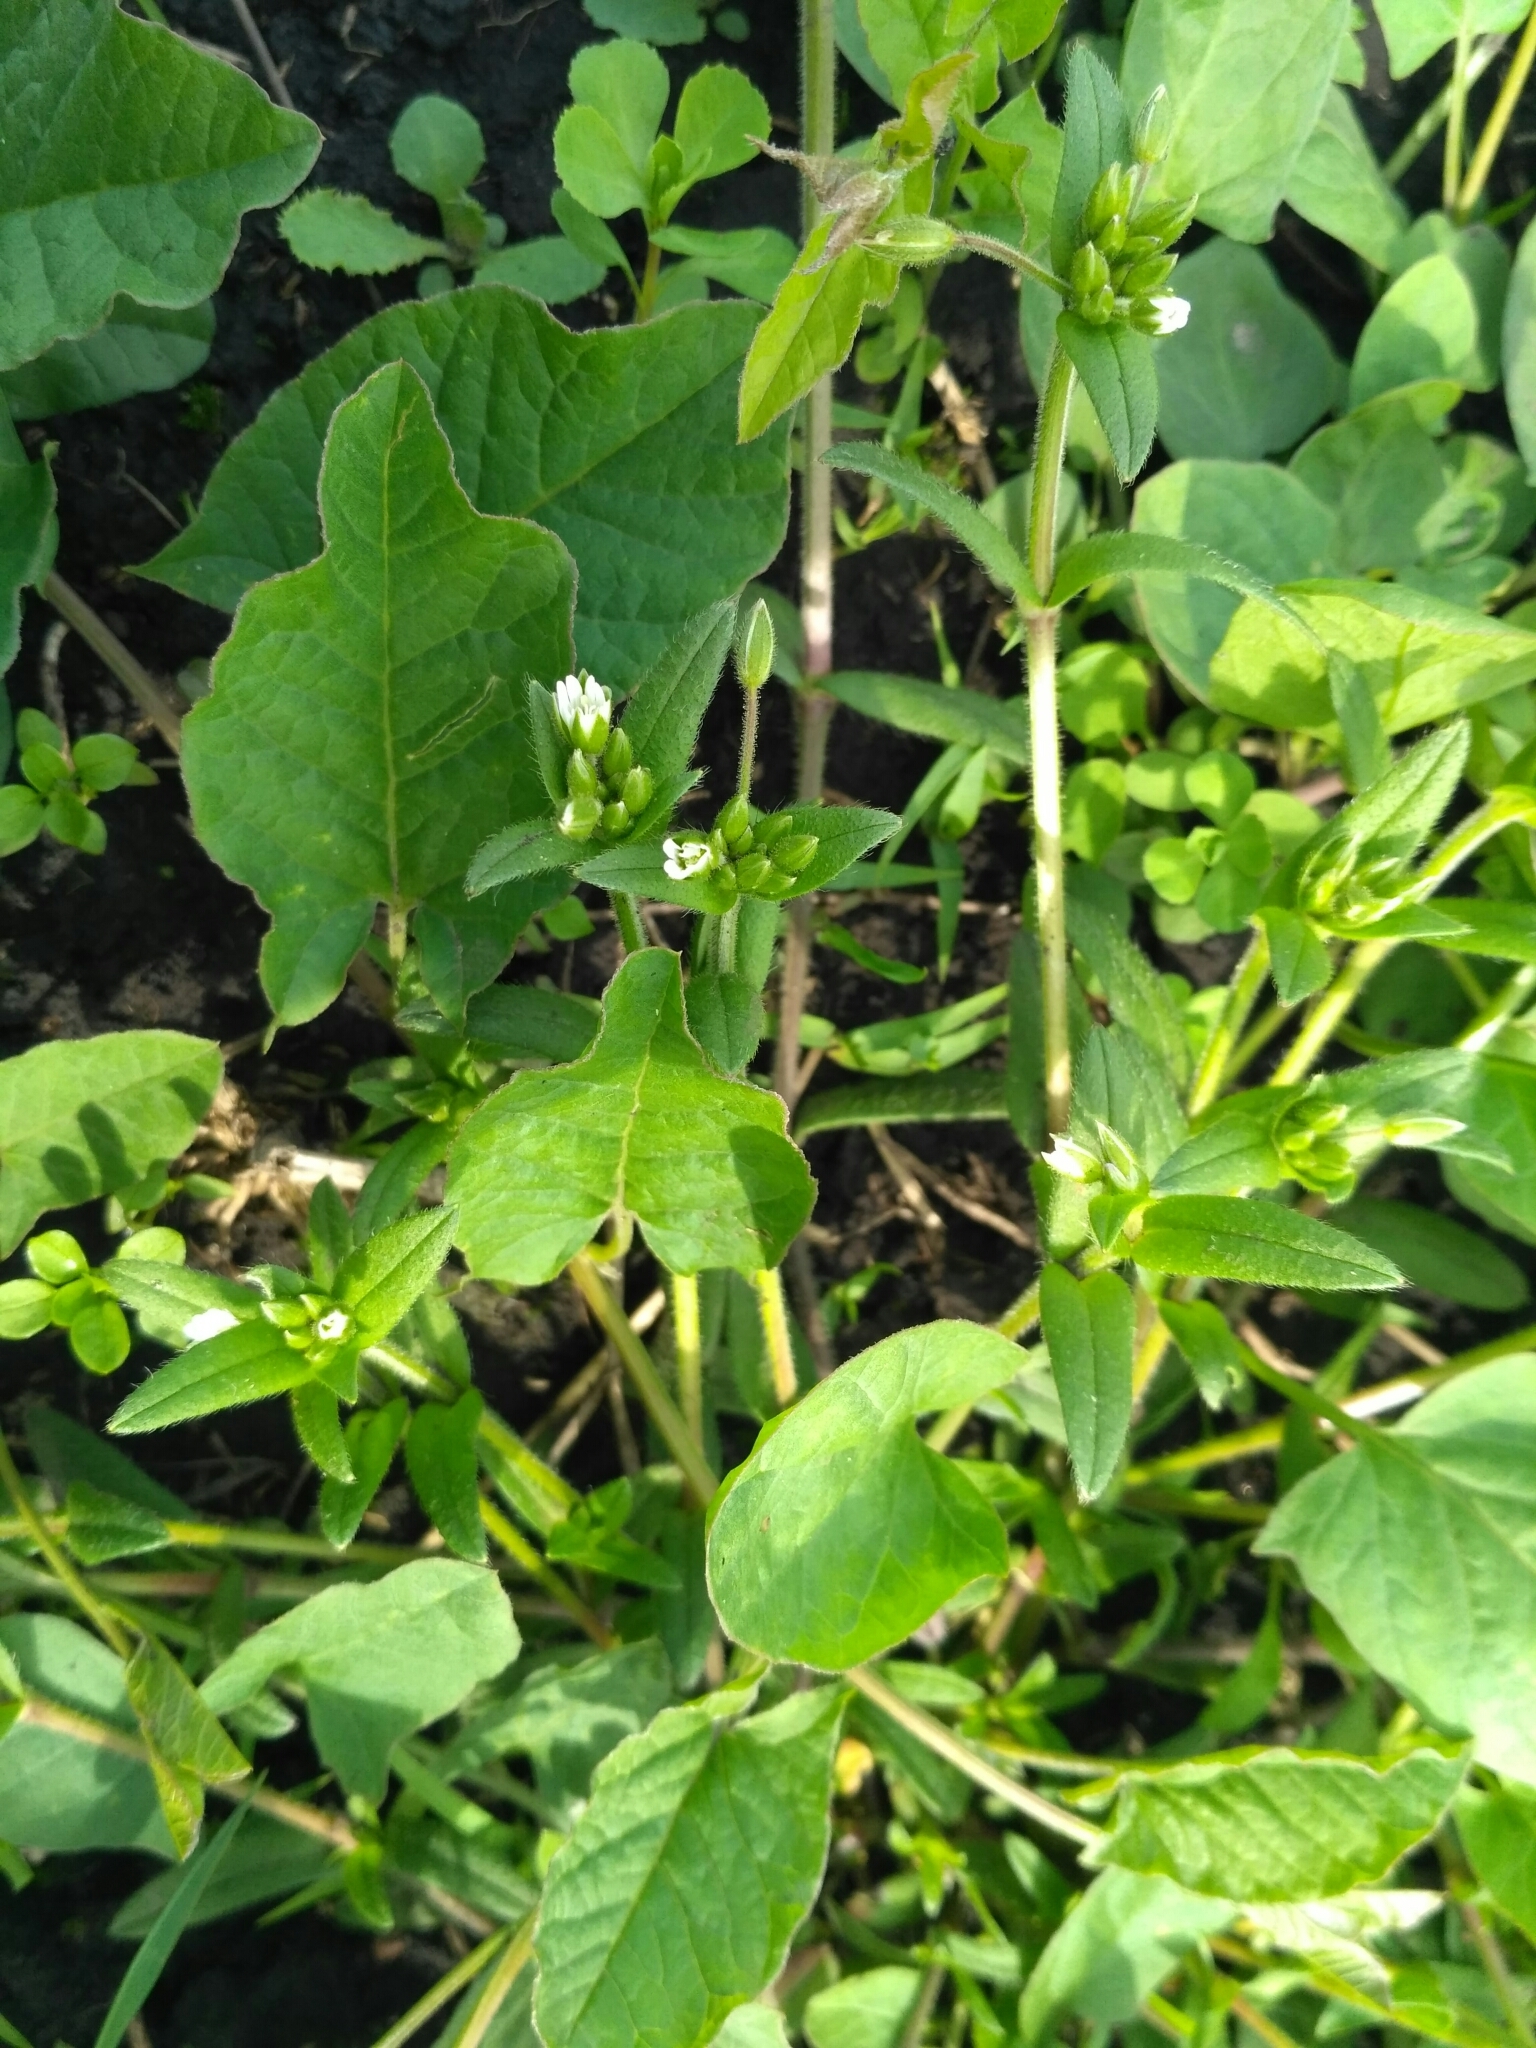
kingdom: Plantae
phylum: Tracheophyta
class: Magnoliopsida
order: Caryophyllales
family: Caryophyllaceae
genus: Cerastium
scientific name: Cerastium holosteoides
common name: Big chickweed
